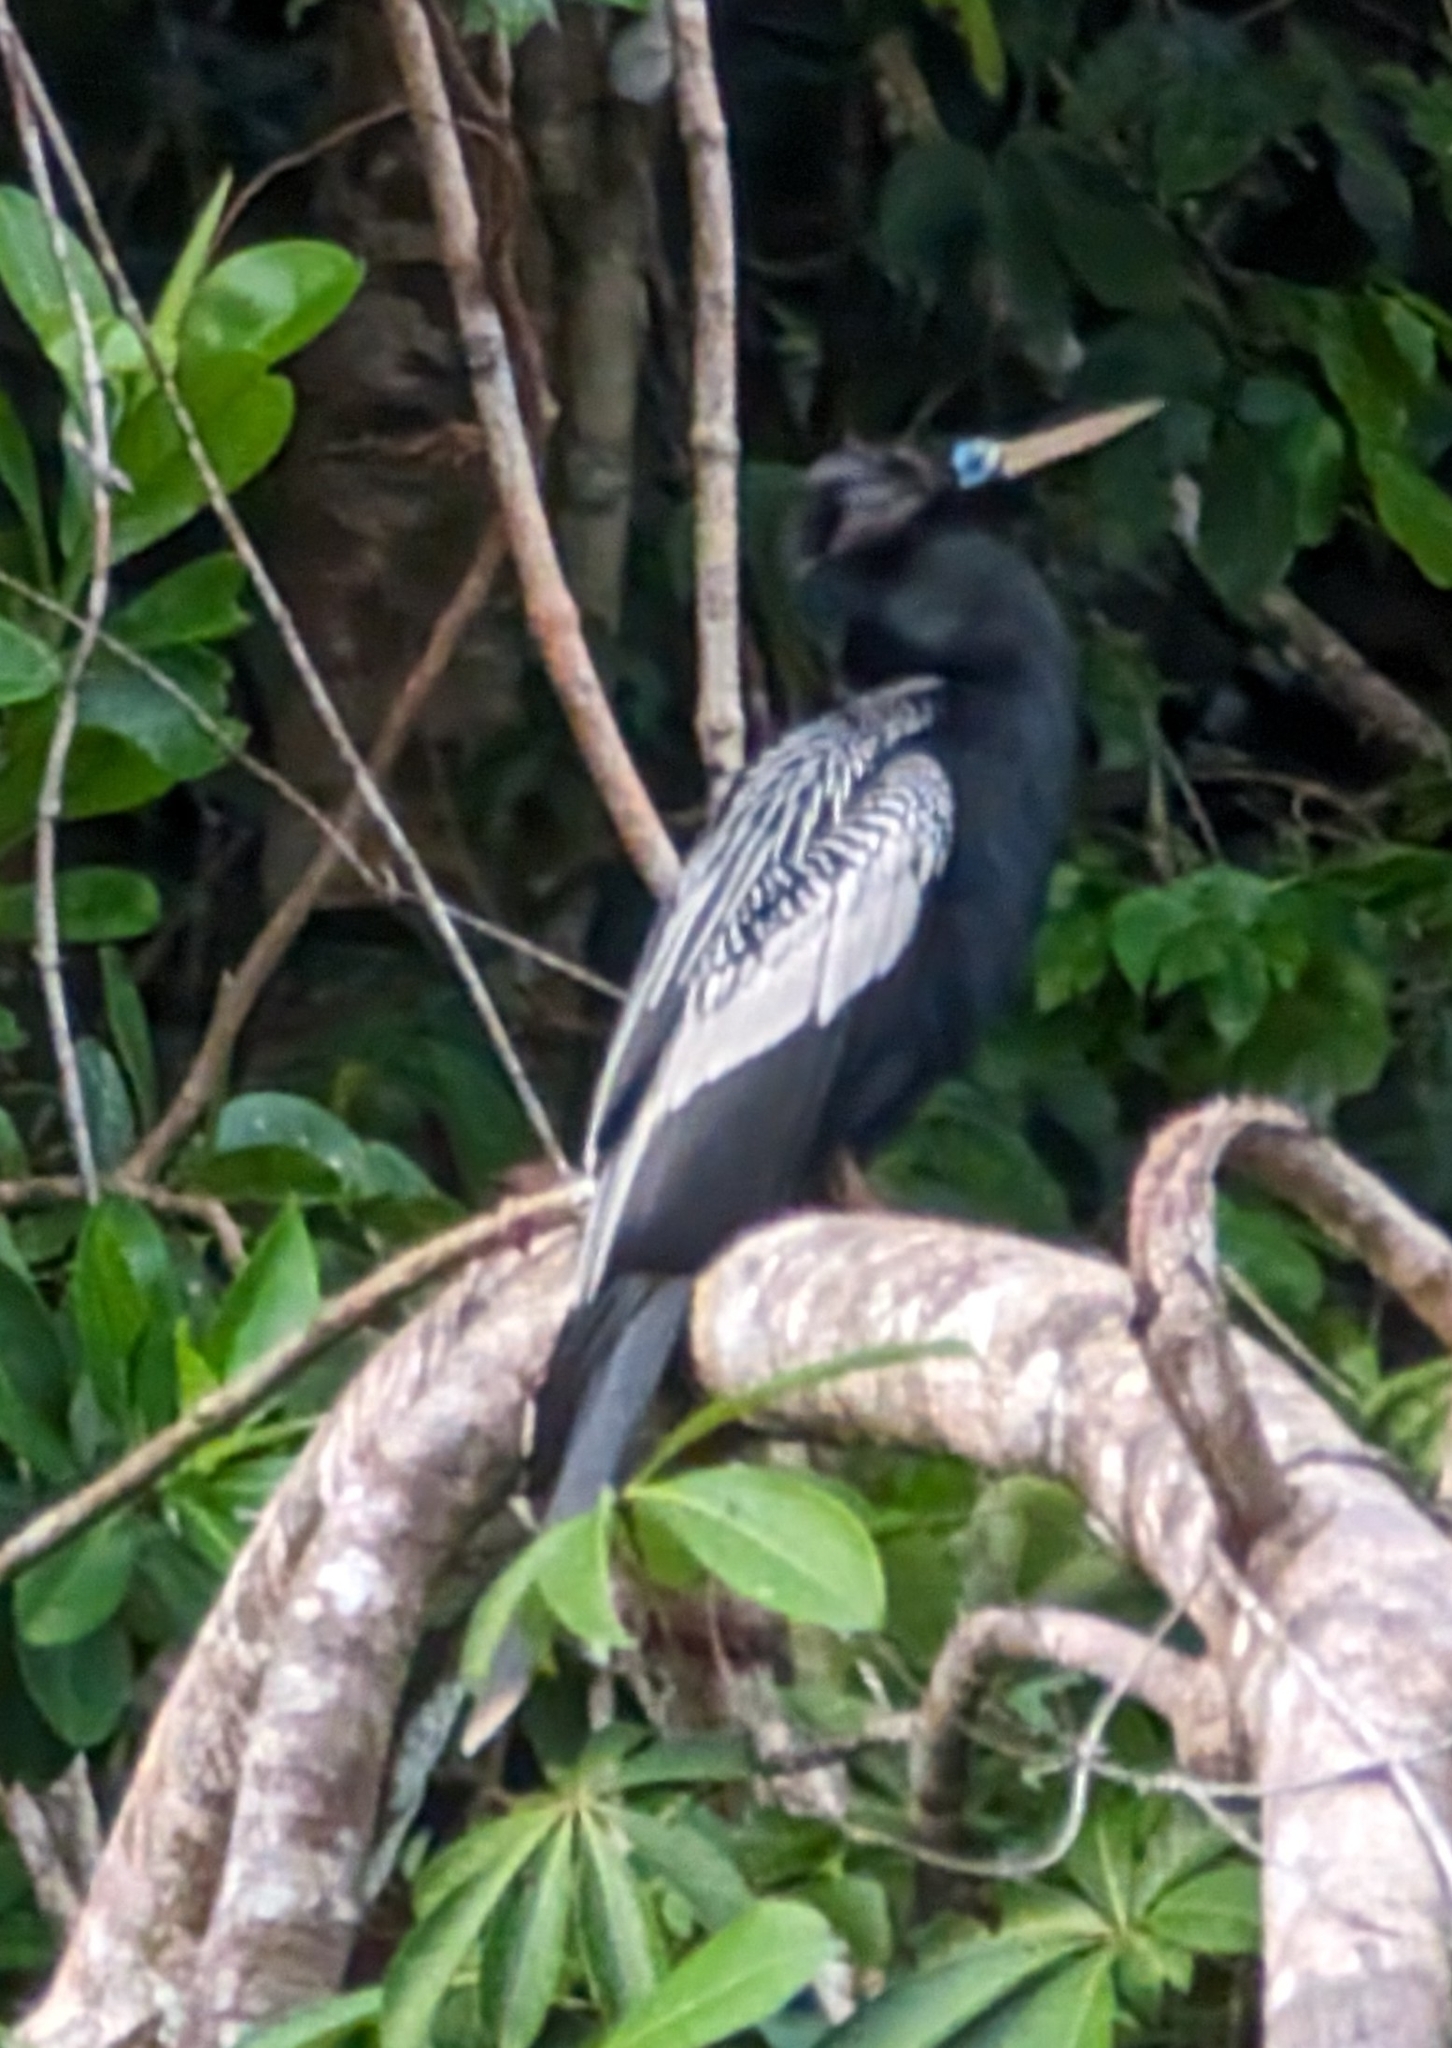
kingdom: Animalia
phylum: Chordata
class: Aves
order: Suliformes
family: Anhingidae
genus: Anhinga
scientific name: Anhinga anhinga
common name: Anhinga
